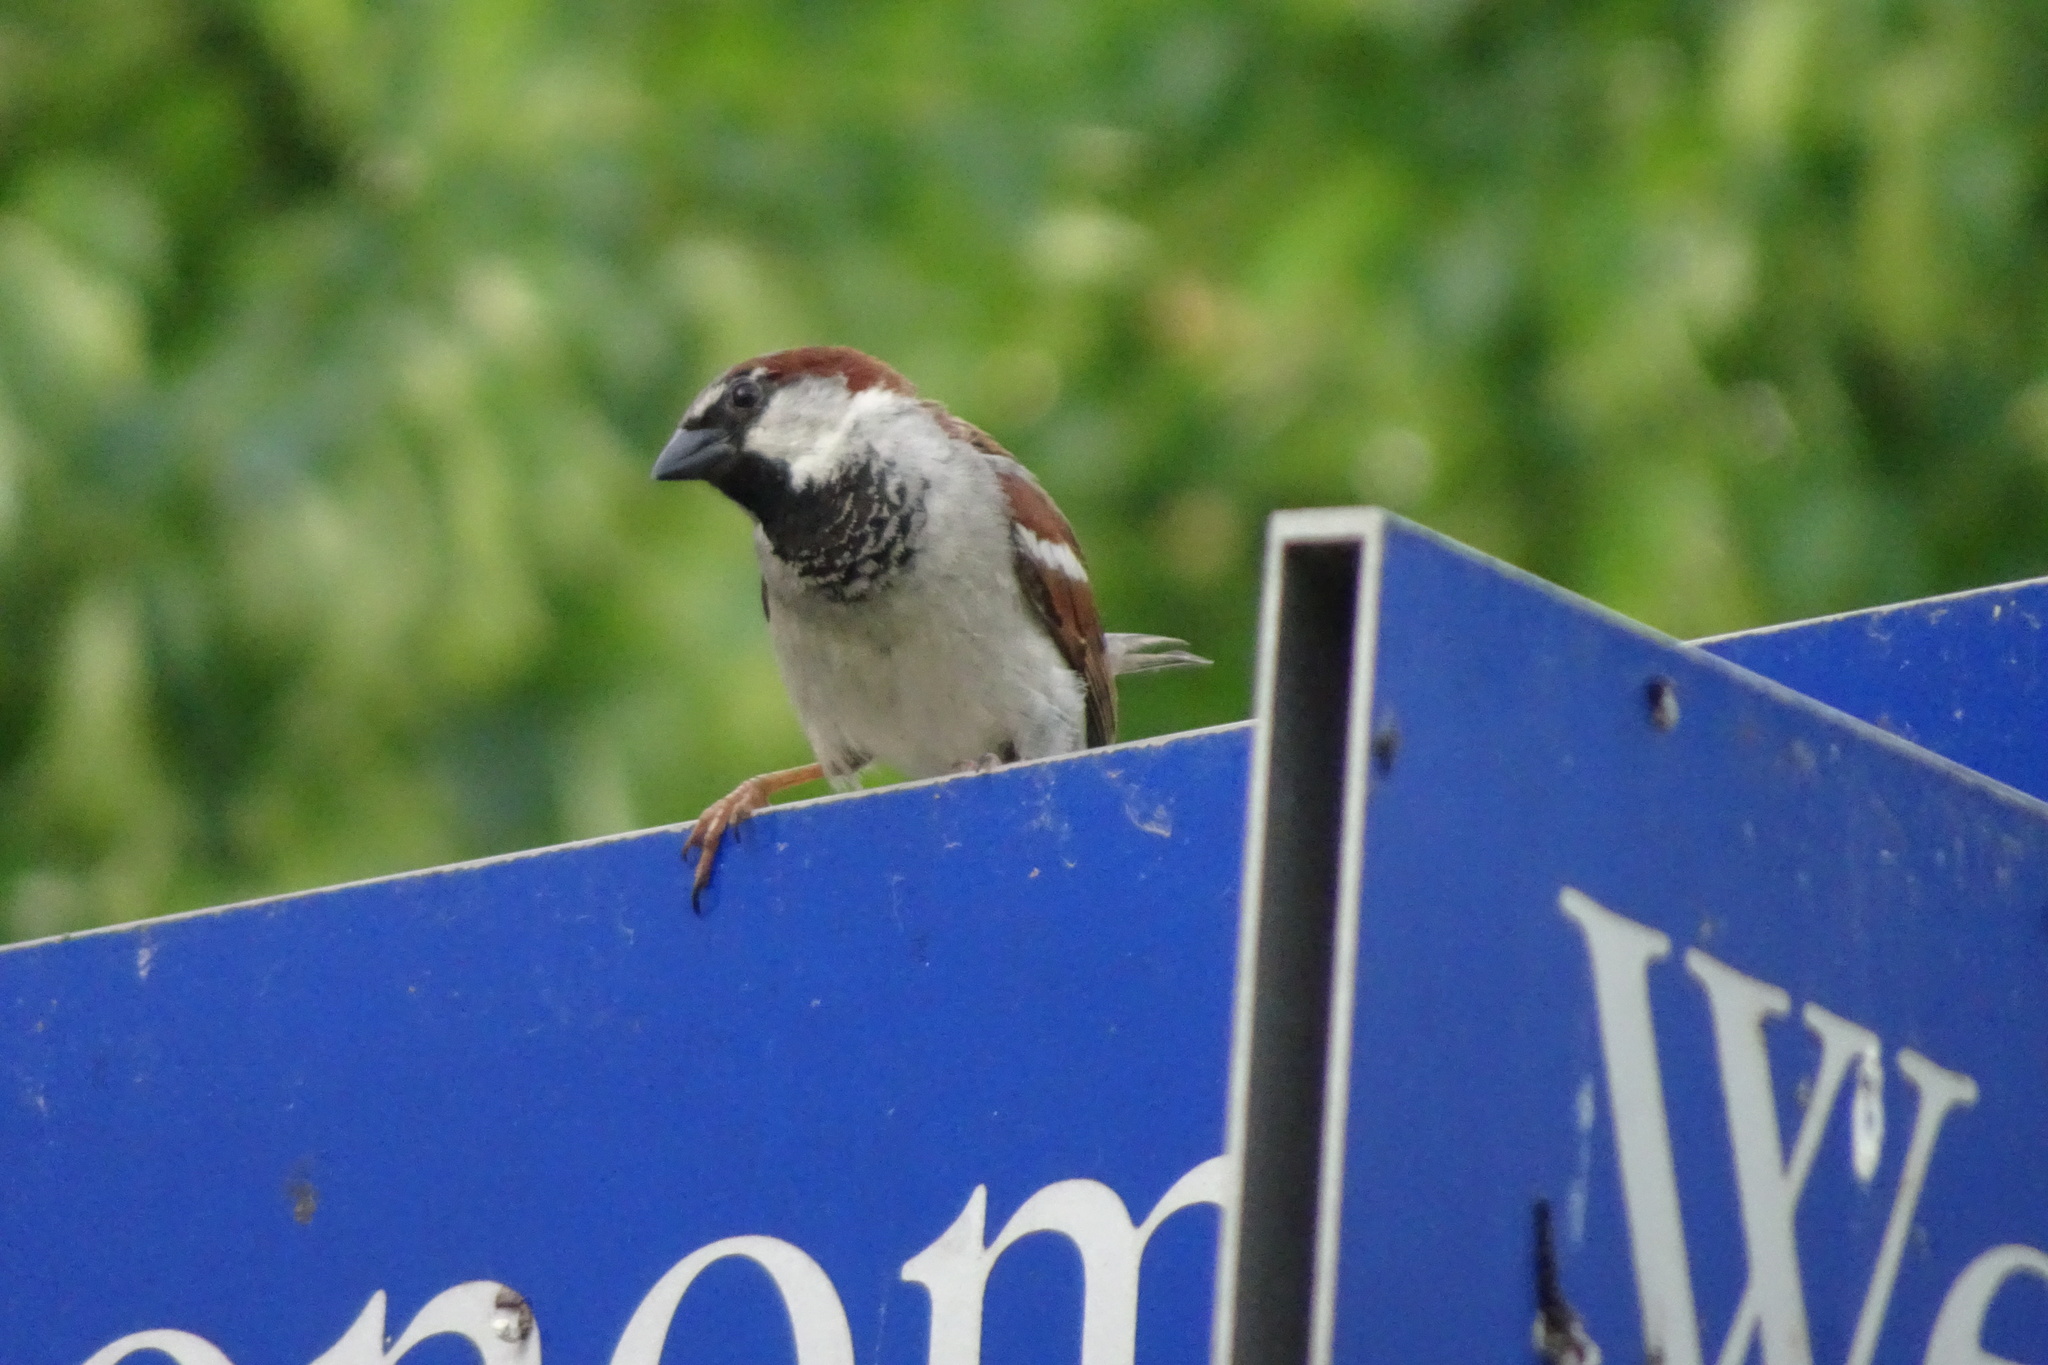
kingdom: Animalia
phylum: Chordata
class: Aves
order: Passeriformes
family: Passeridae
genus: Passer
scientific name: Passer domesticus
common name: House sparrow
